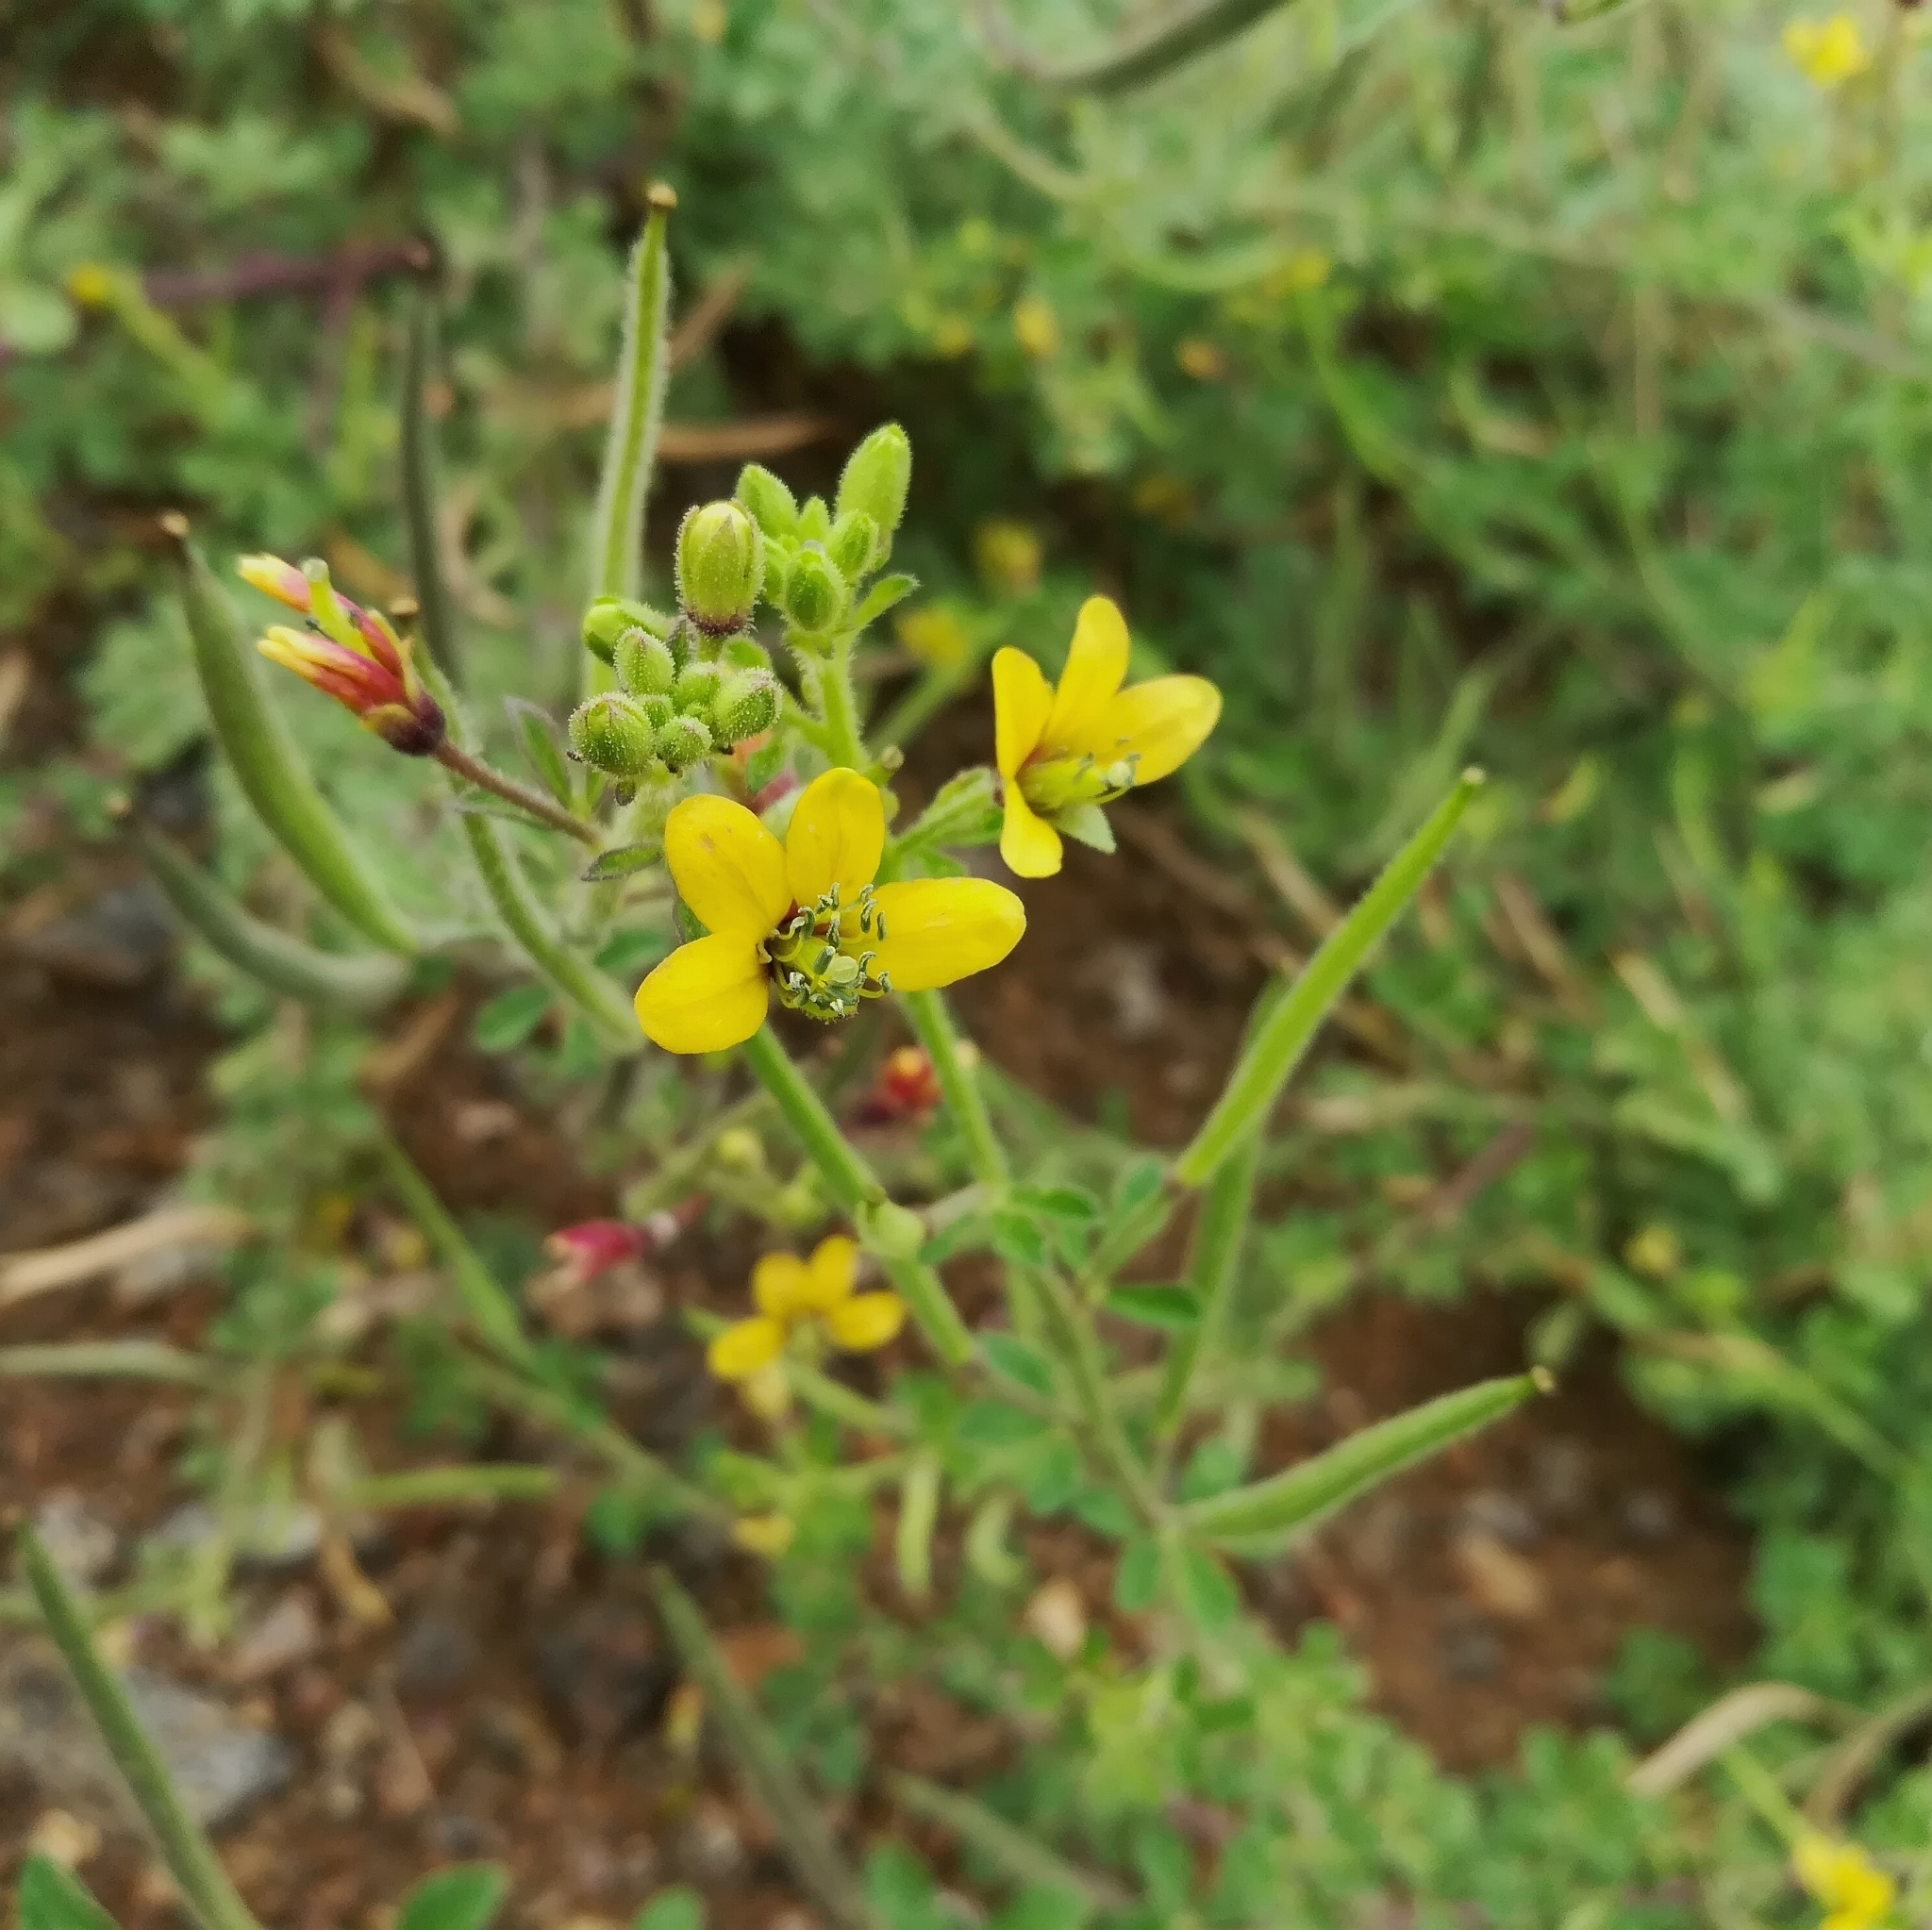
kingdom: Plantae
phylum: Tracheophyta
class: Magnoliopsida
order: Brassicales
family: Cleomaceae
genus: Arivela
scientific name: Arivela viscosa
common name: Asian spiderflower
